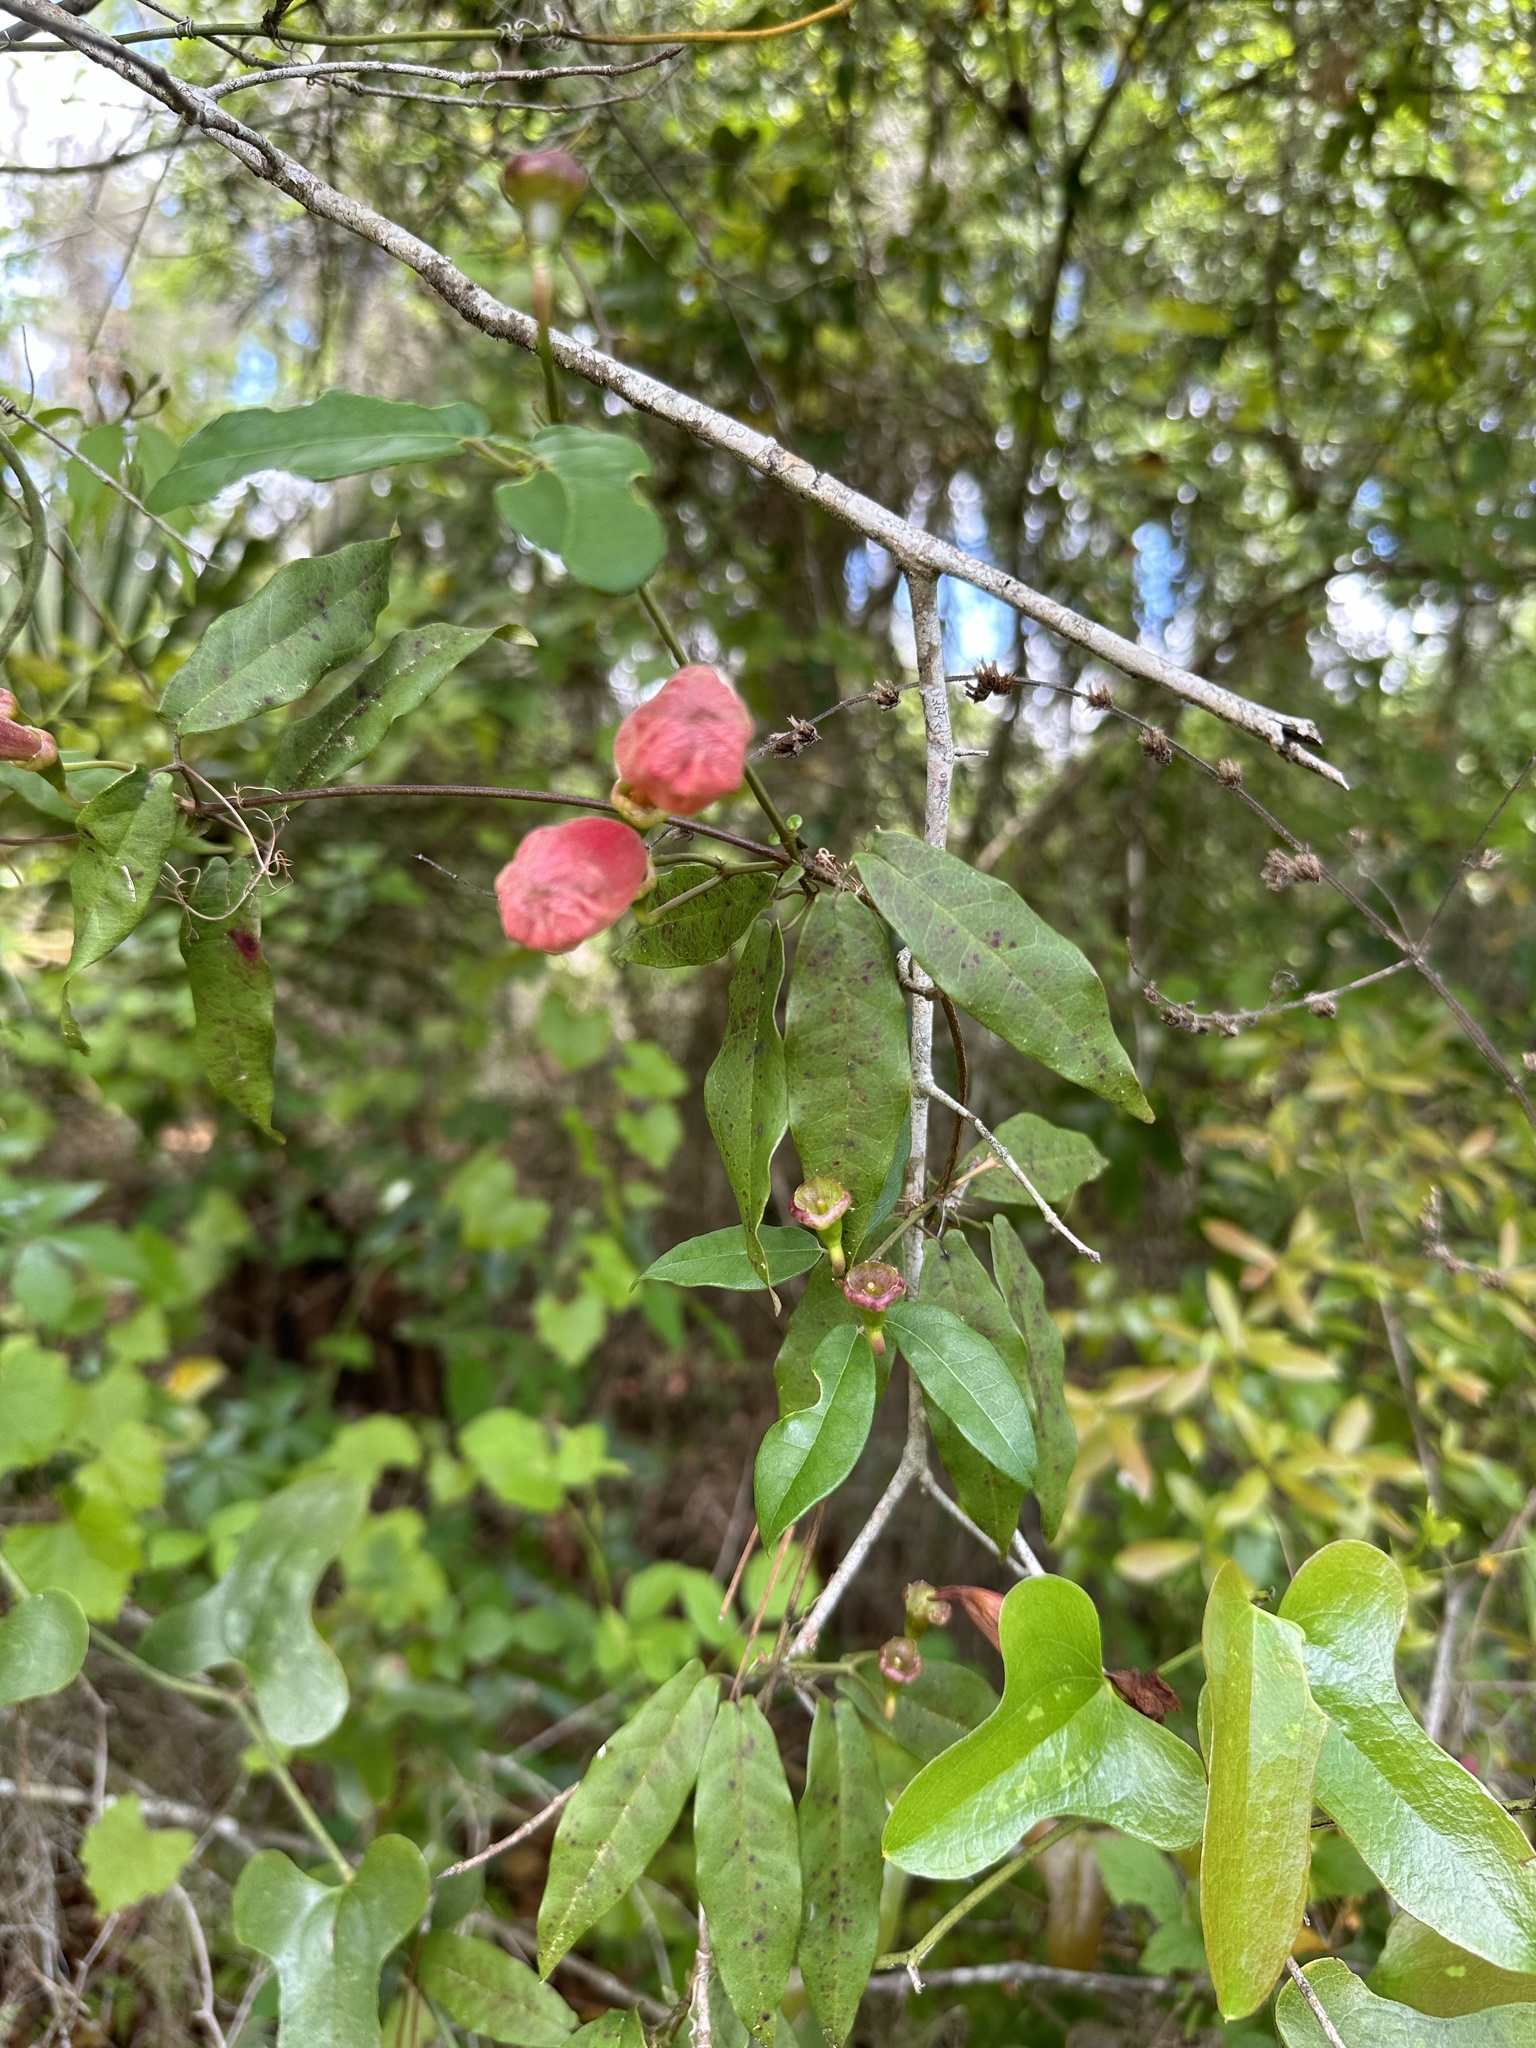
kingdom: Plantae
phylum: Tracheophyta
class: Magnoliopsida
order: Lamiales
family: Bignoniaceae
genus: Bignonia
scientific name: Bignonia capreolata
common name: Crossvine
